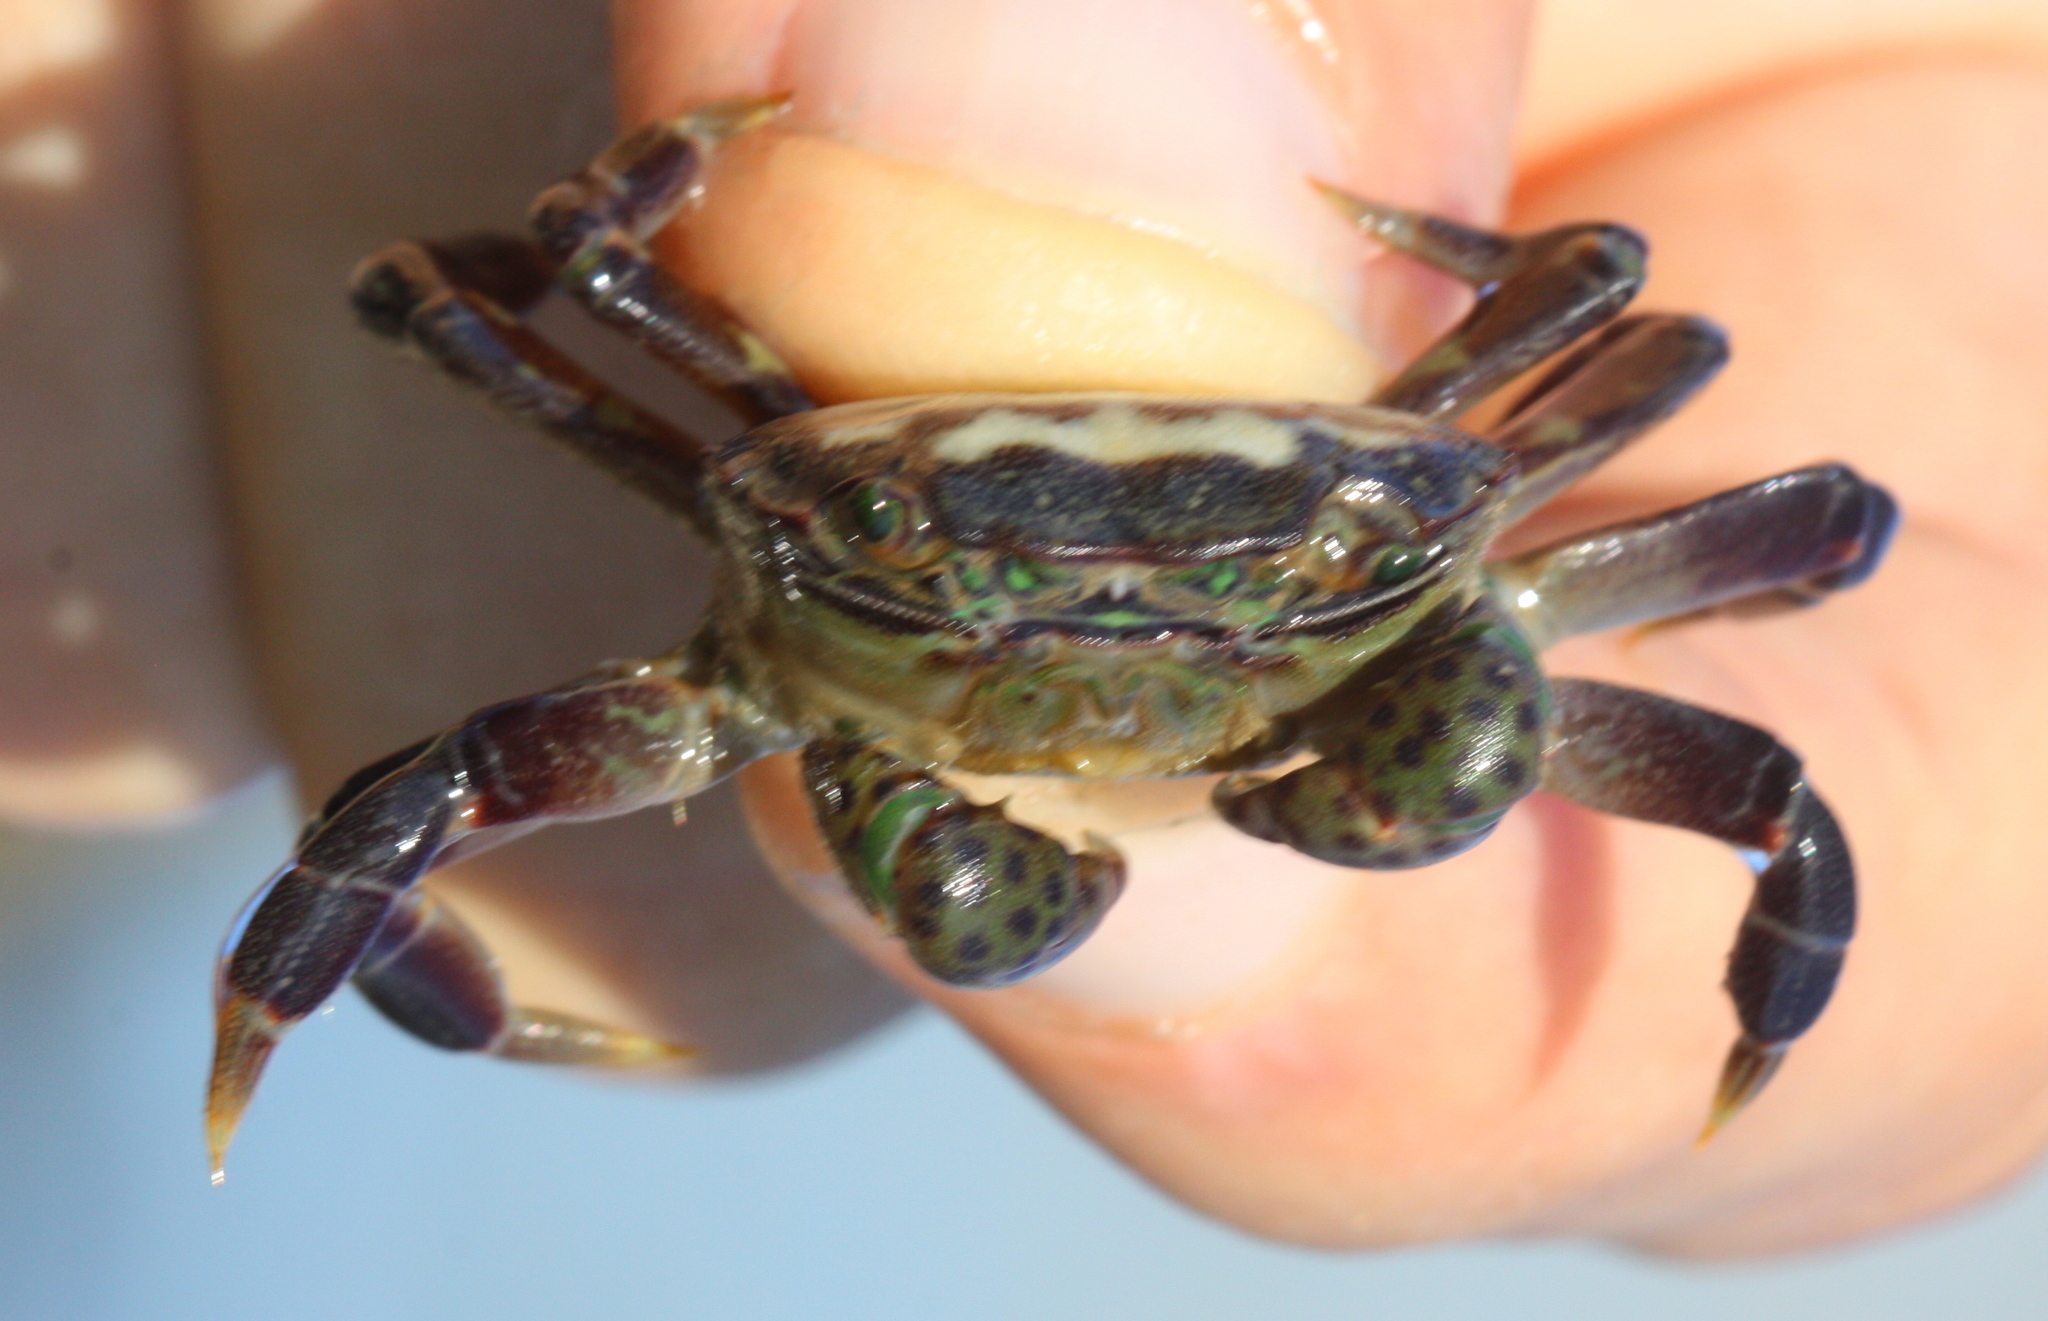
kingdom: Animalia
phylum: Arthropoda
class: Malacostraca
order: Decapoda
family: Varunidae
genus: Hemigrapsus
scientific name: Hemigrapsus nudus
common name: Purple shore crab
